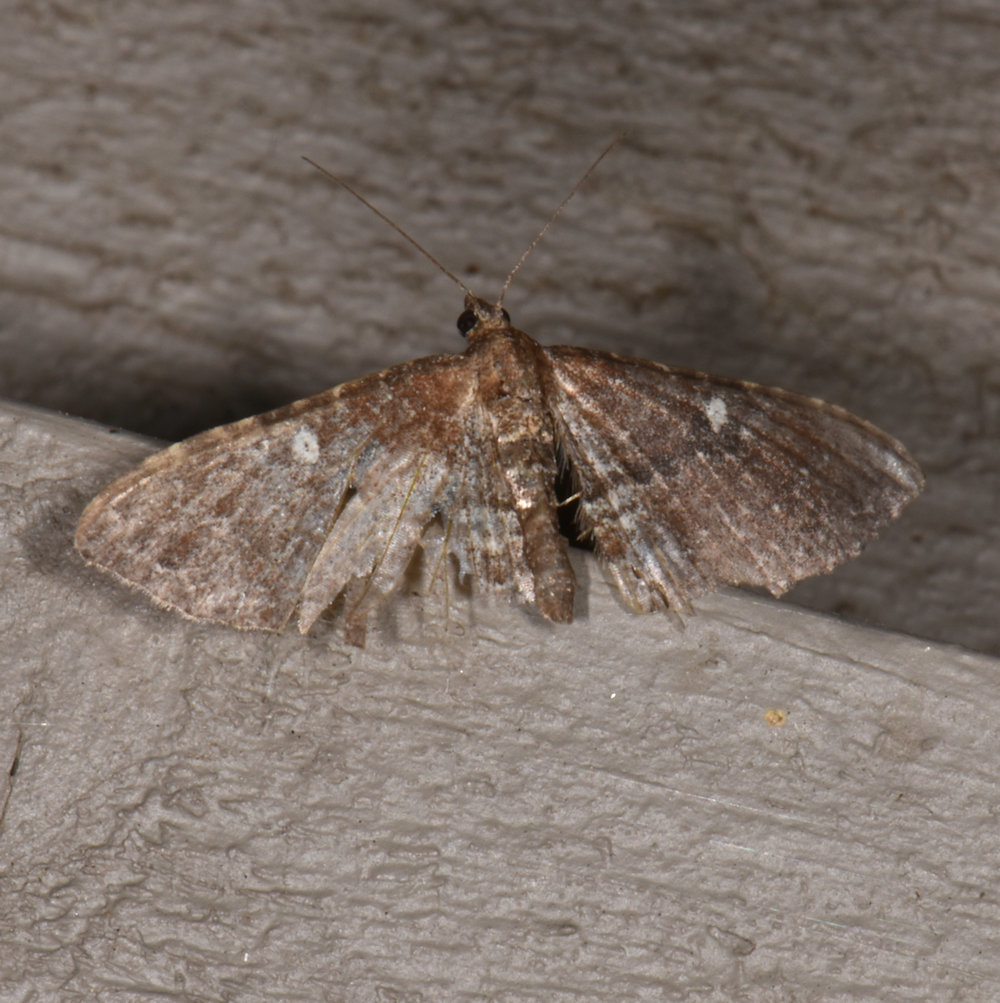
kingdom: Animalia
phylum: Arthropoda
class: Insecta
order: Lepidoptera
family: Geometridae
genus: Orthonama
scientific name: Orthonama obstipata
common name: The gem
